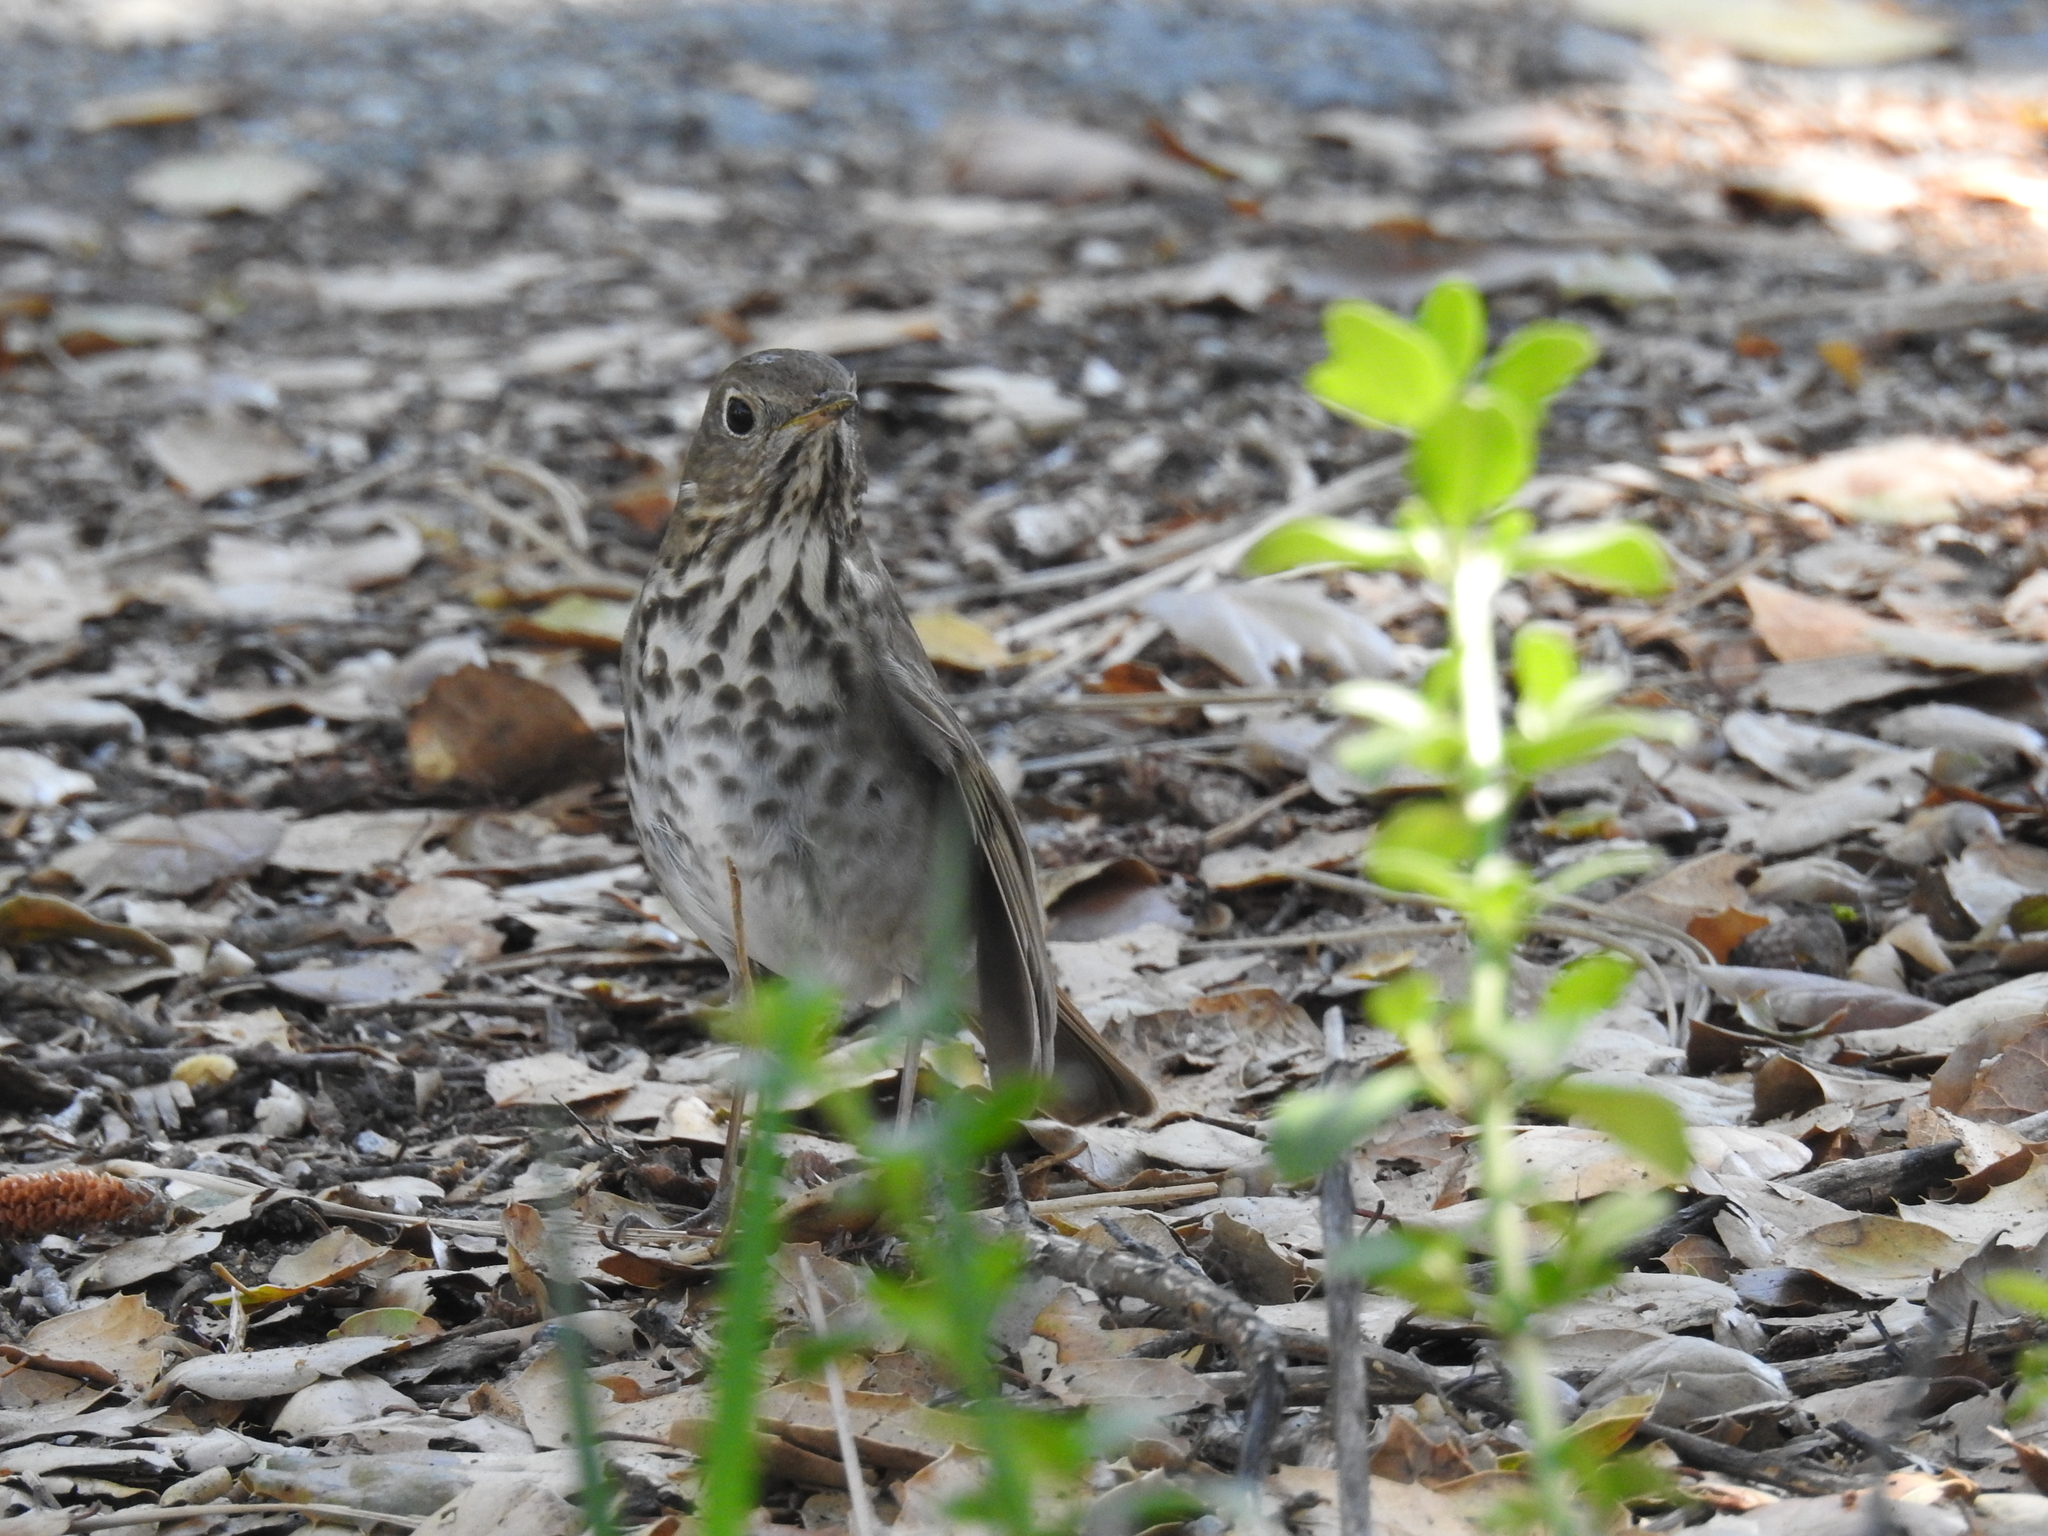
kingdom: Animalia
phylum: Chordata
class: Aves
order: Passeriformes
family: Turdidae
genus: Catharus
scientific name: Catharus guttatus
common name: Hermit thrush
